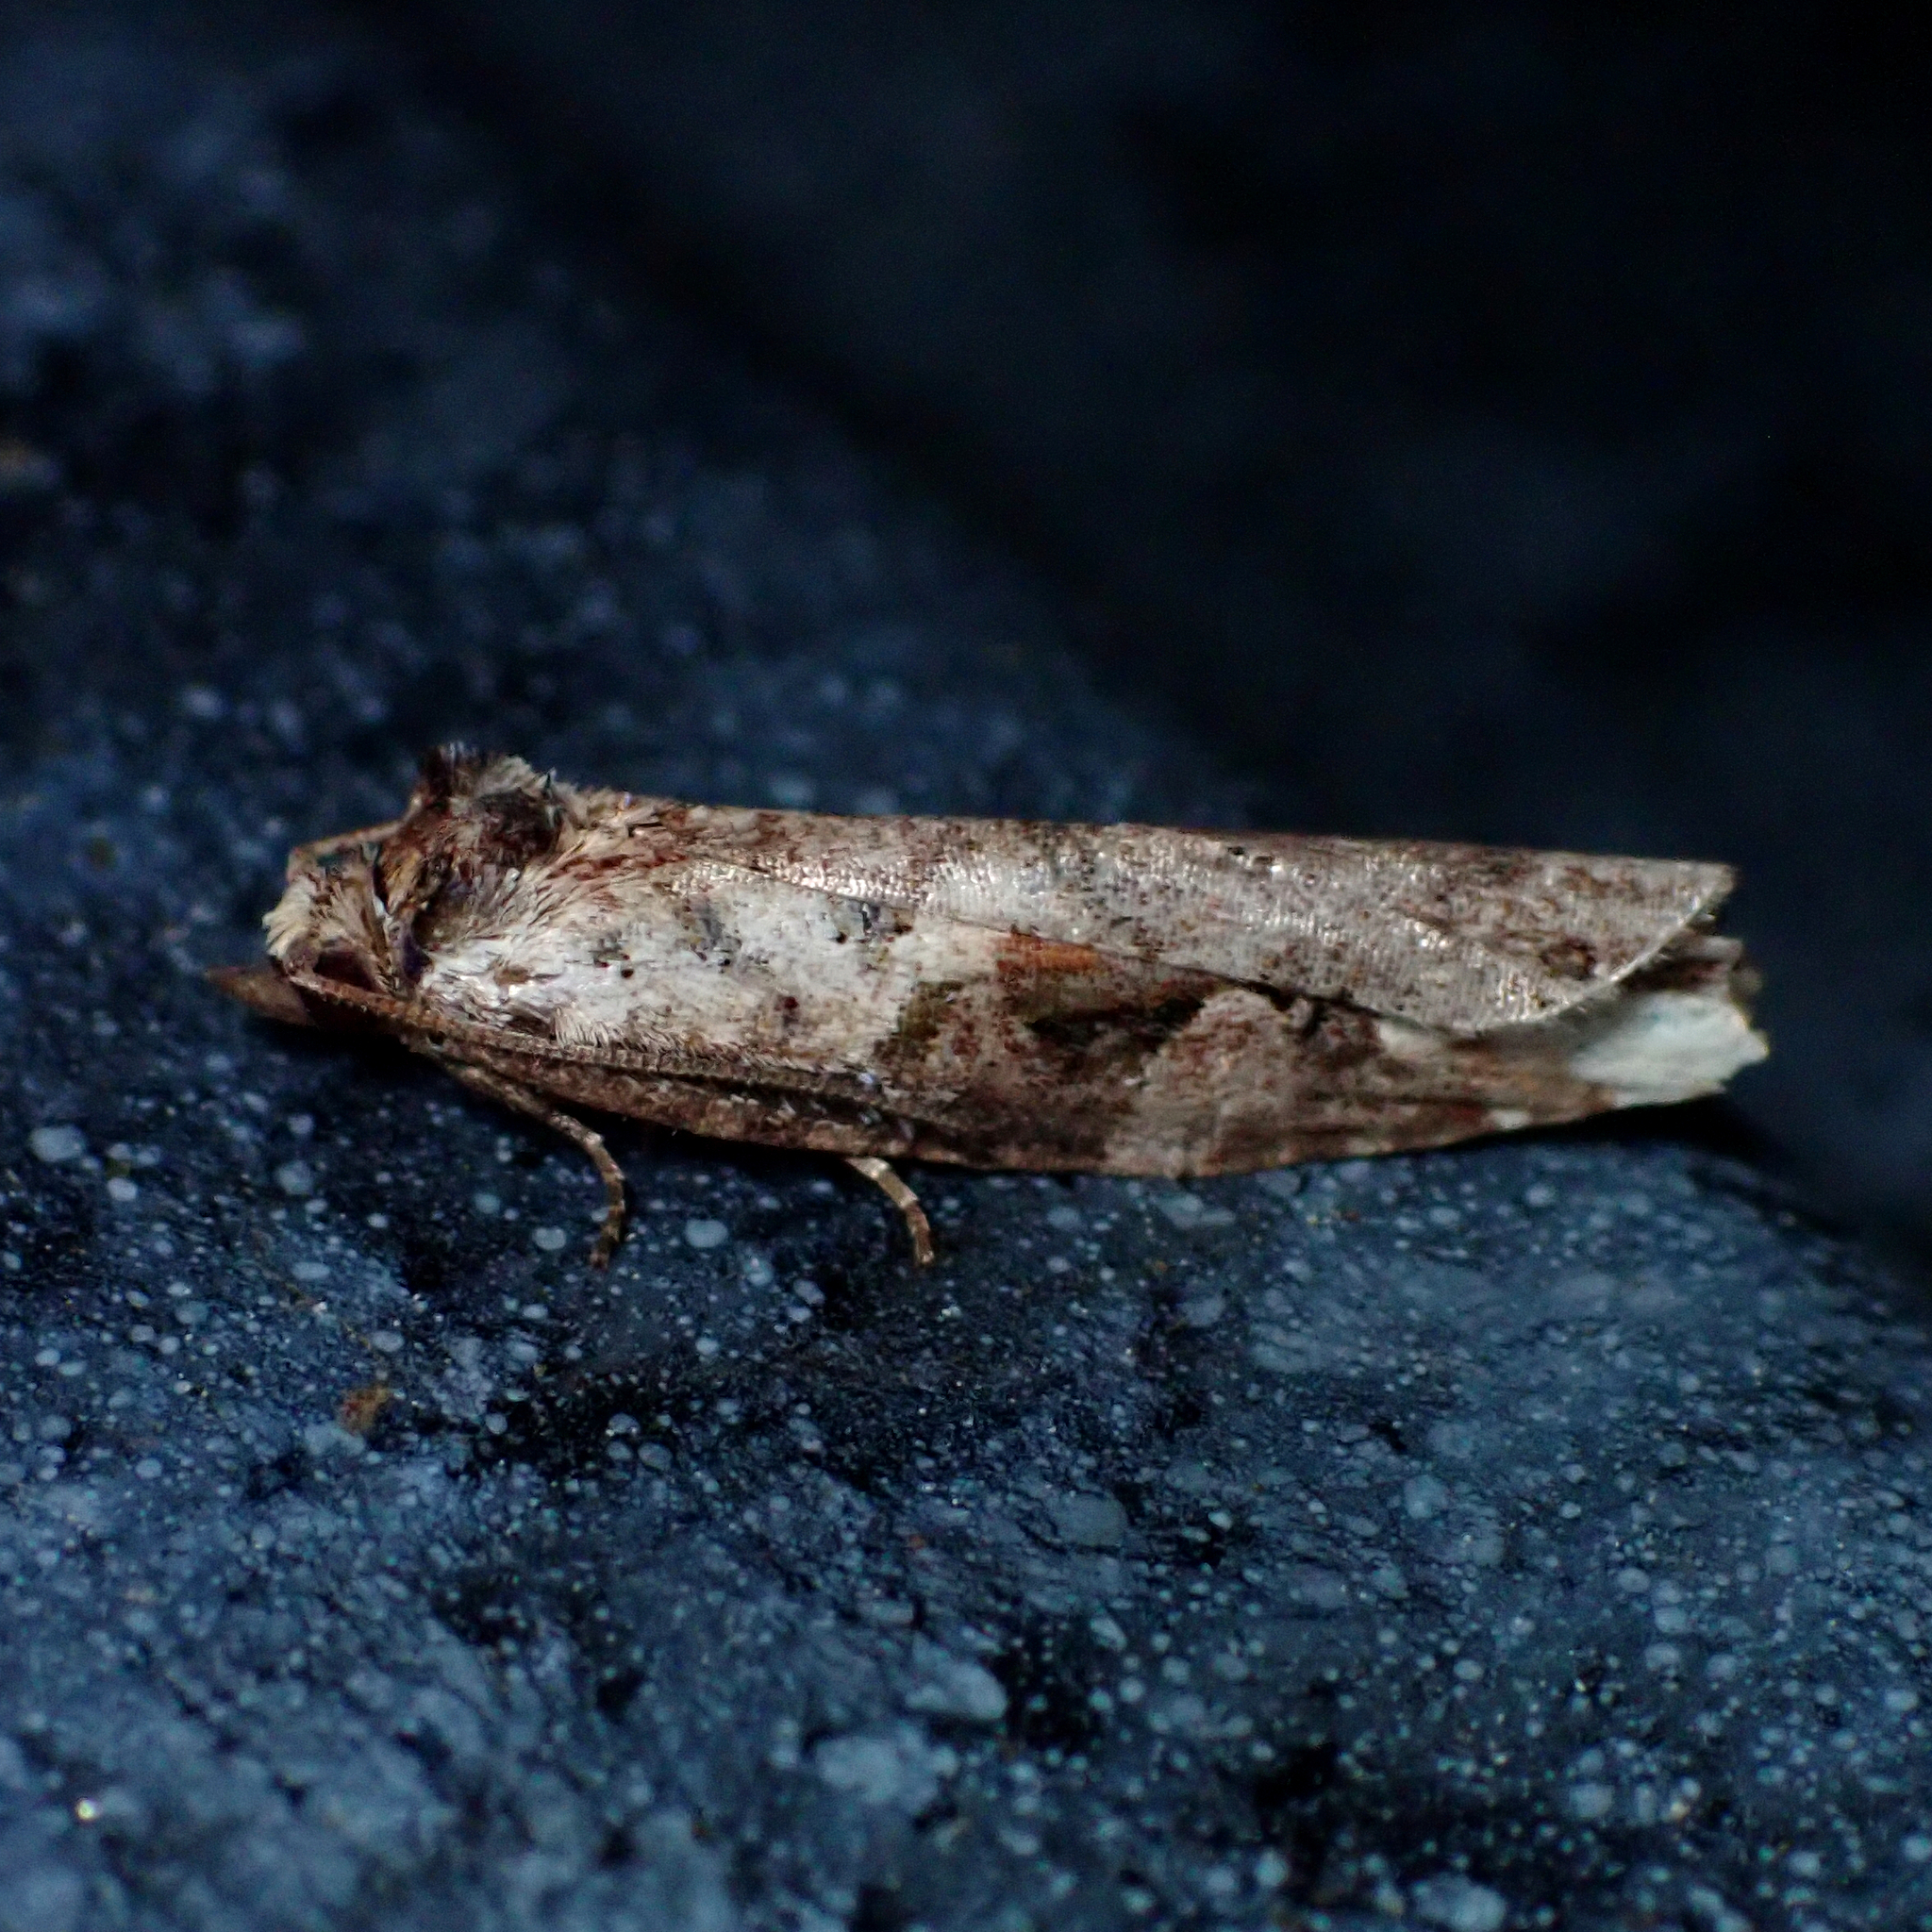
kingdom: Animalia
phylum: Arthropoda
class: Insecta
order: Lepidoptera
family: Tortricidae
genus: Epalxiphora
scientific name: Epalxiphora axenana
